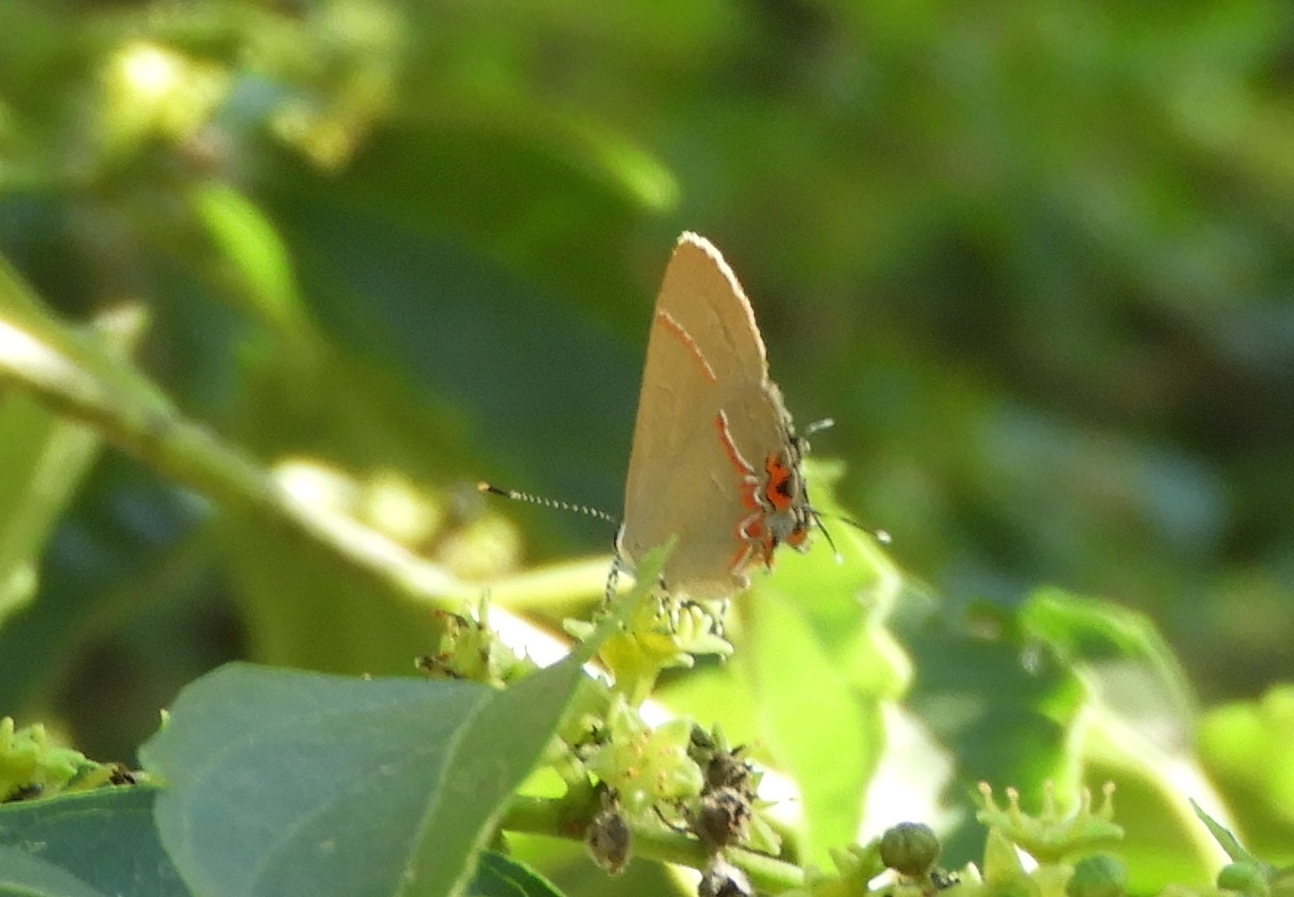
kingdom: Animalia
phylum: Arthropoda
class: Insecta
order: Lepidoptera
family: Lycaenidae
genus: Calycopis
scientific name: Calycopis
